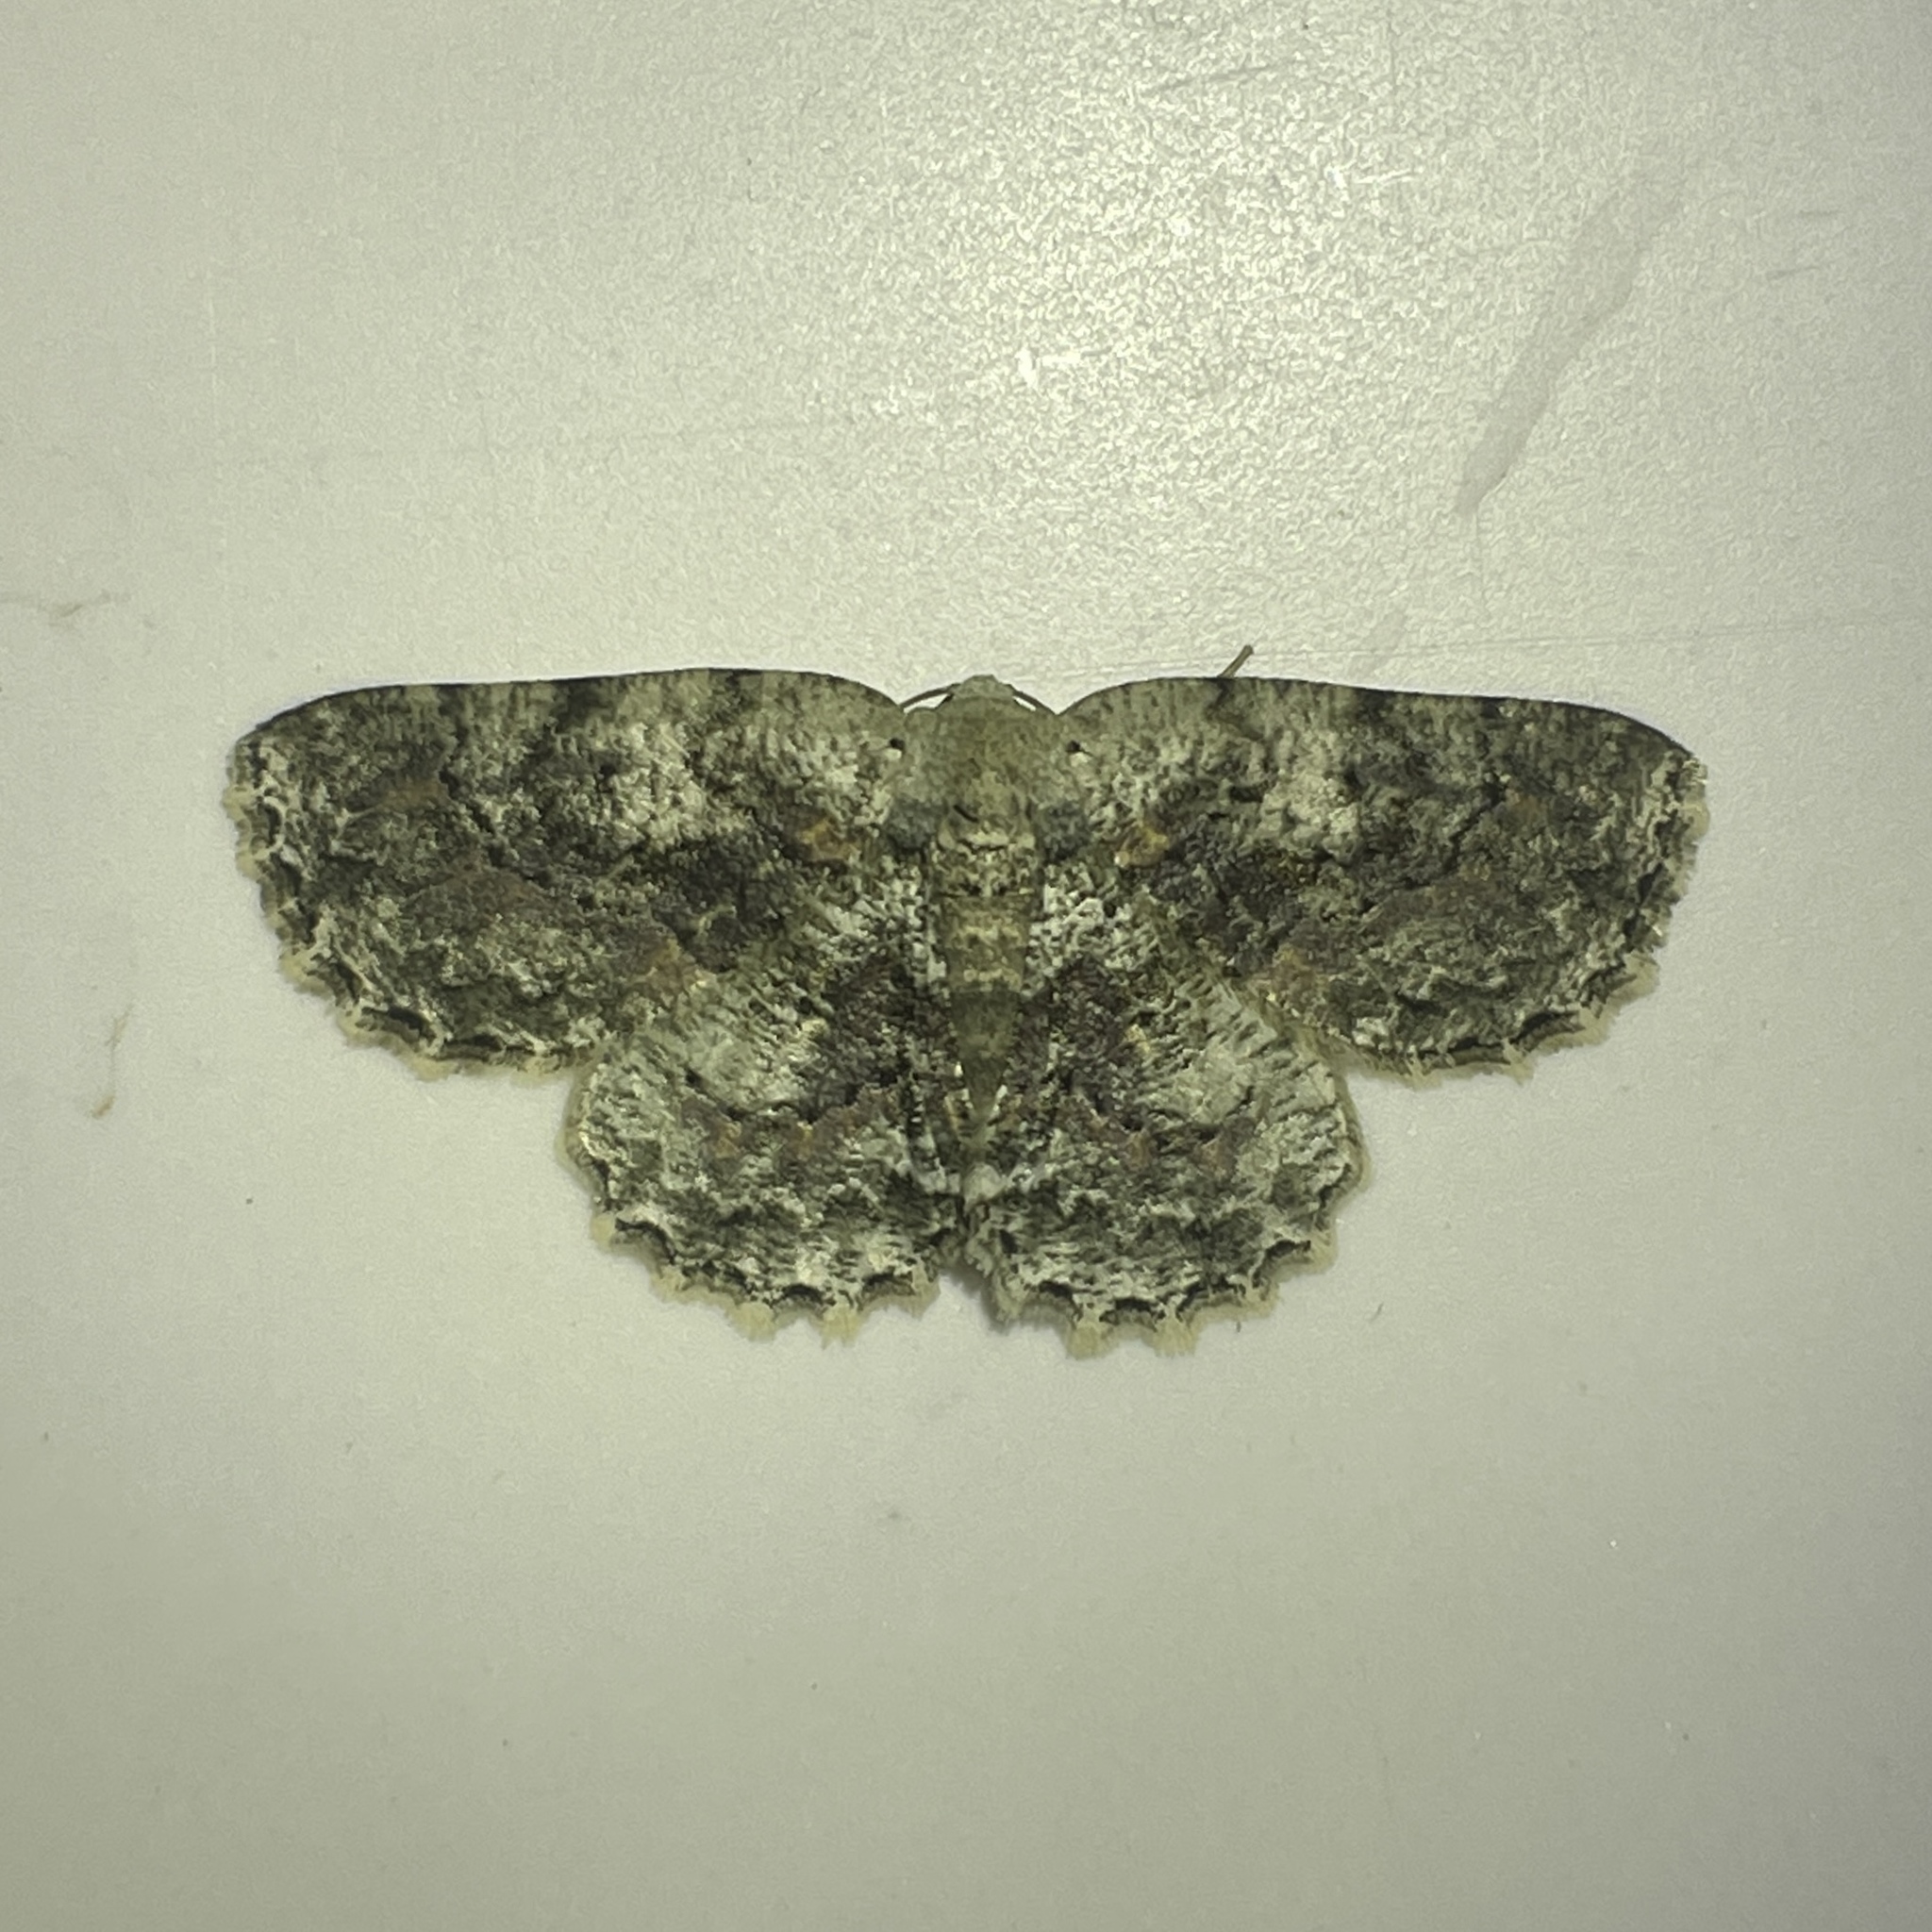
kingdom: Animalia
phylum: Arthropoda
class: Insecta
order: Lepidoptera
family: Geometridae
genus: Bryoptera
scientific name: Bryoptera hypomelas
